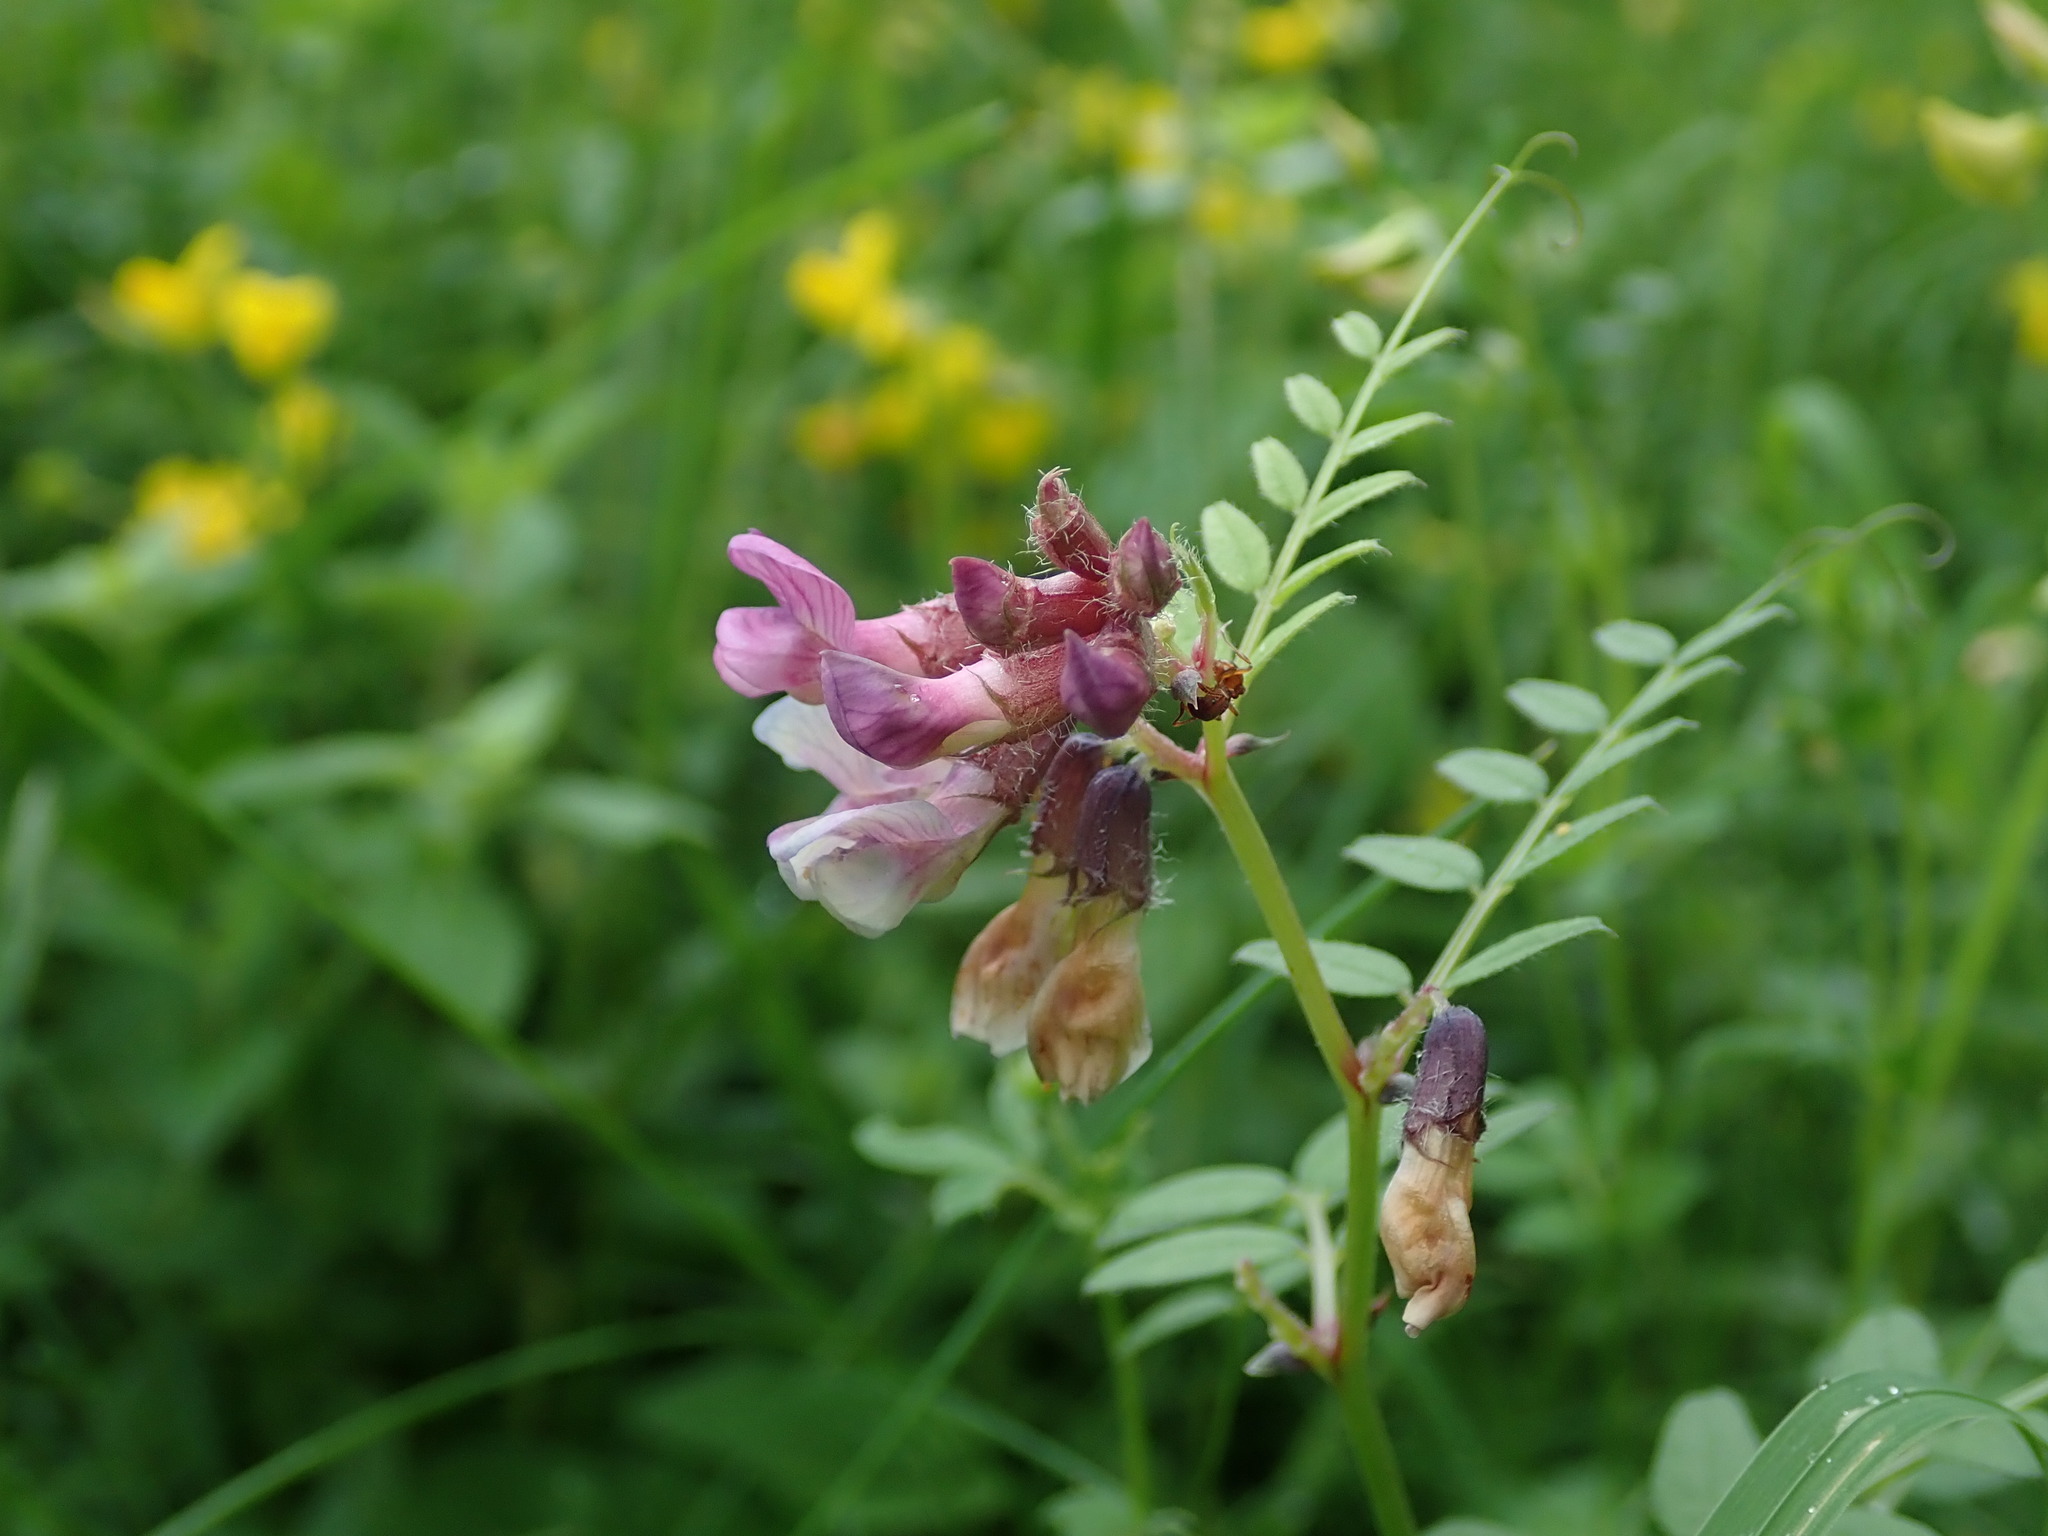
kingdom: Plantae
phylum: Tracheophyta
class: Magnoliopsida
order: Fabales
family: Fabaceae
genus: Vicia
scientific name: Vicia sepium
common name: Bush vetch
